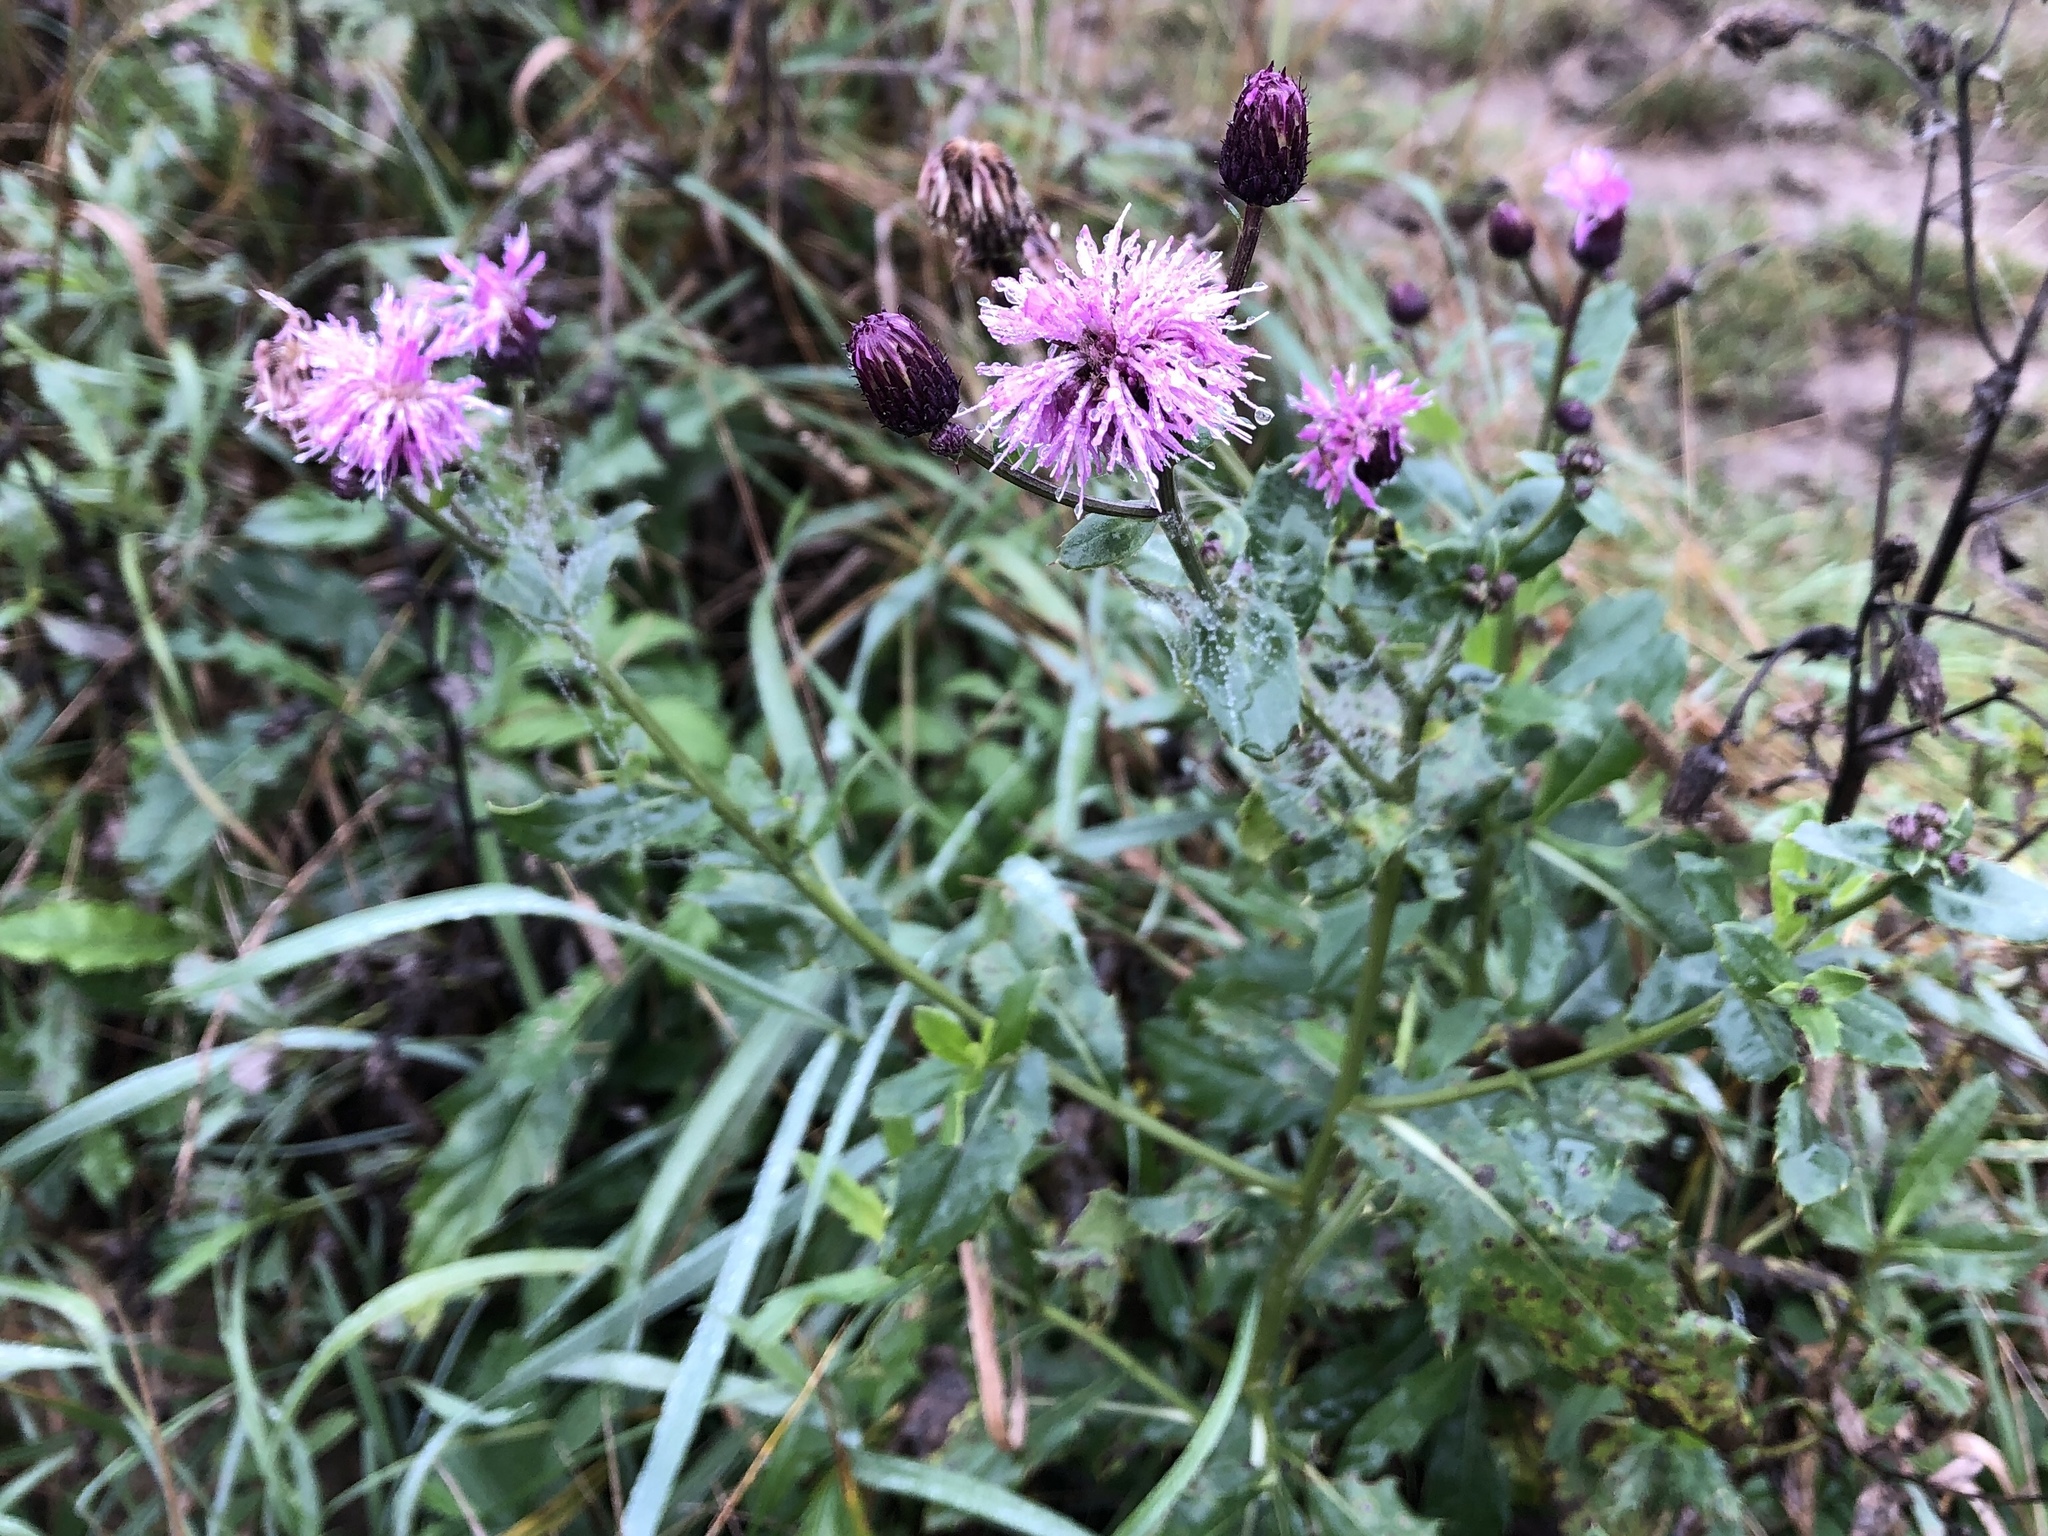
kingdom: Plantae
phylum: Tracheophyta
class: Magnoliopsida
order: Asterales
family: Asteraceae
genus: Cirsium
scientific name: Cirsium arvense
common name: Creeping thistle
